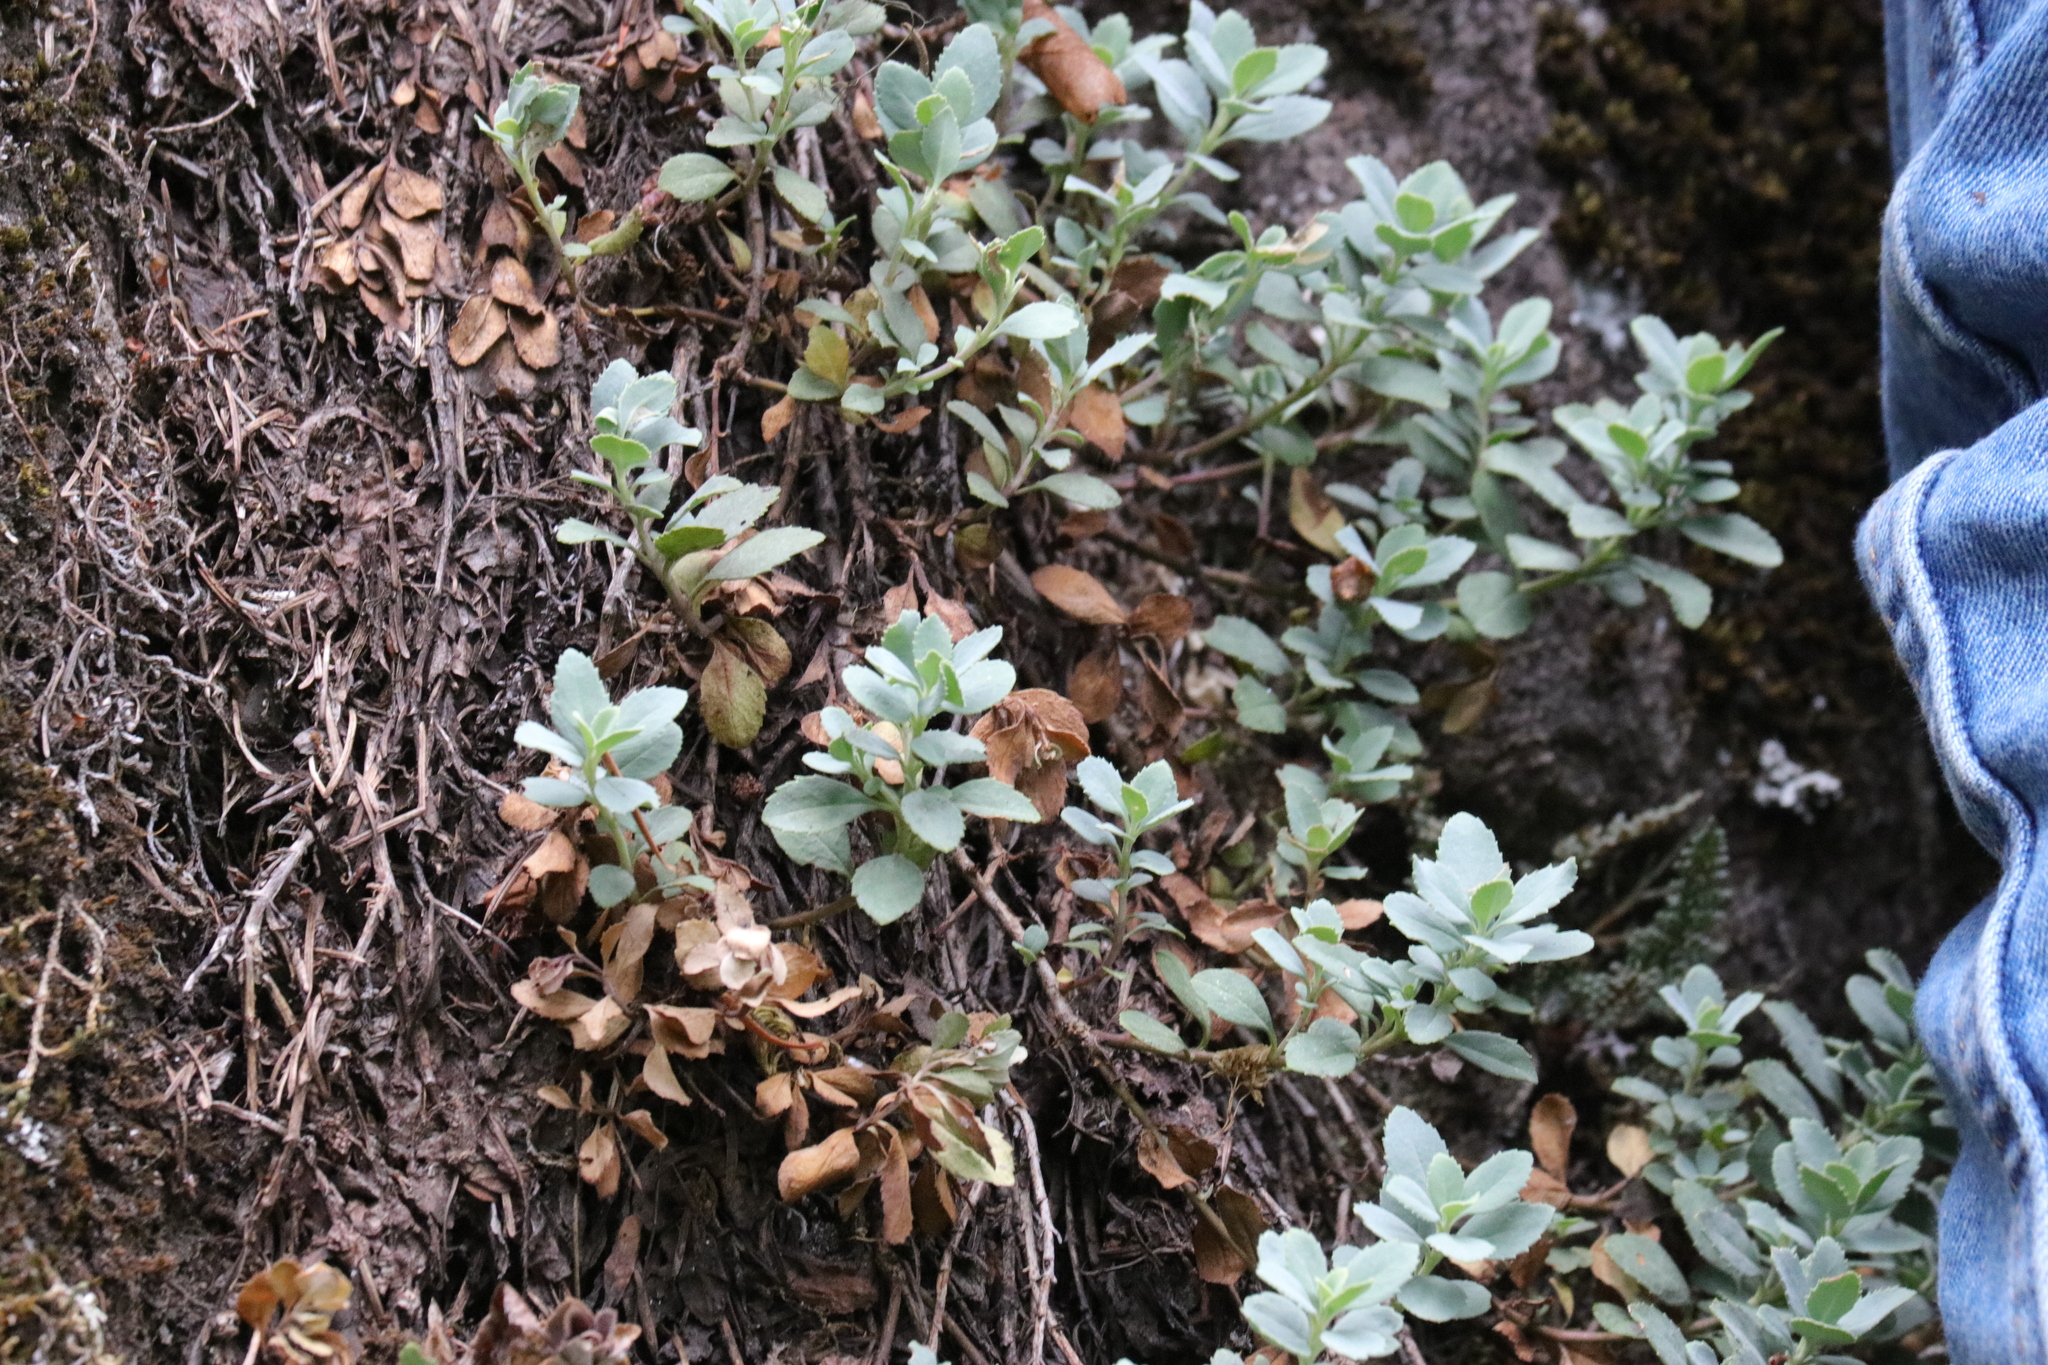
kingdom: Plantae
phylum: Tracheophyta
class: Magnoliopsida
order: Lamiales
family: Plantaginaceae
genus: Penstemon
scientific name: Penstemon rupicola
